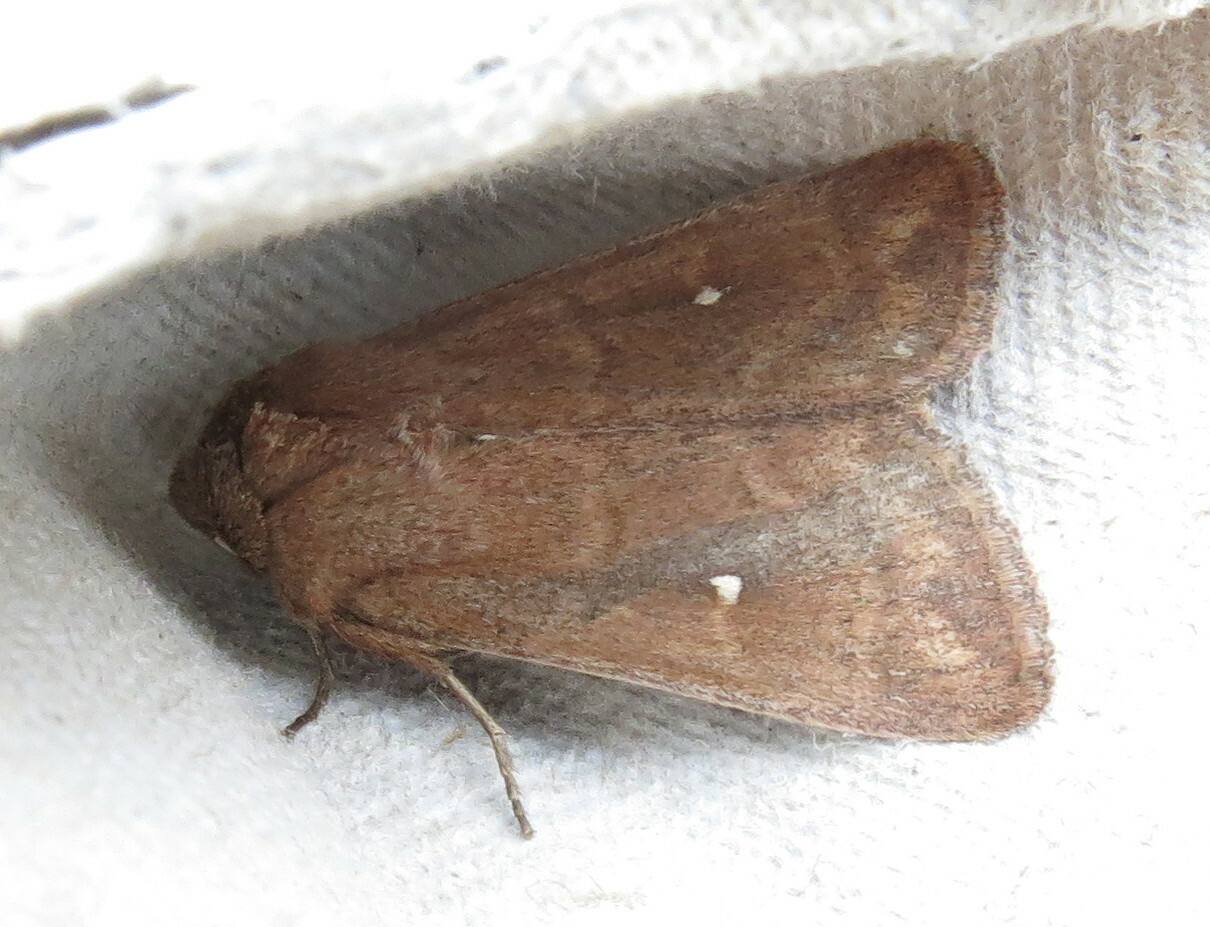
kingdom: Animalia
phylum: Arthropoda
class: Insecta
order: Lepidoptera
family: Noctuidae
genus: Mythimna
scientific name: Mythimna albipuncta
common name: White-point
